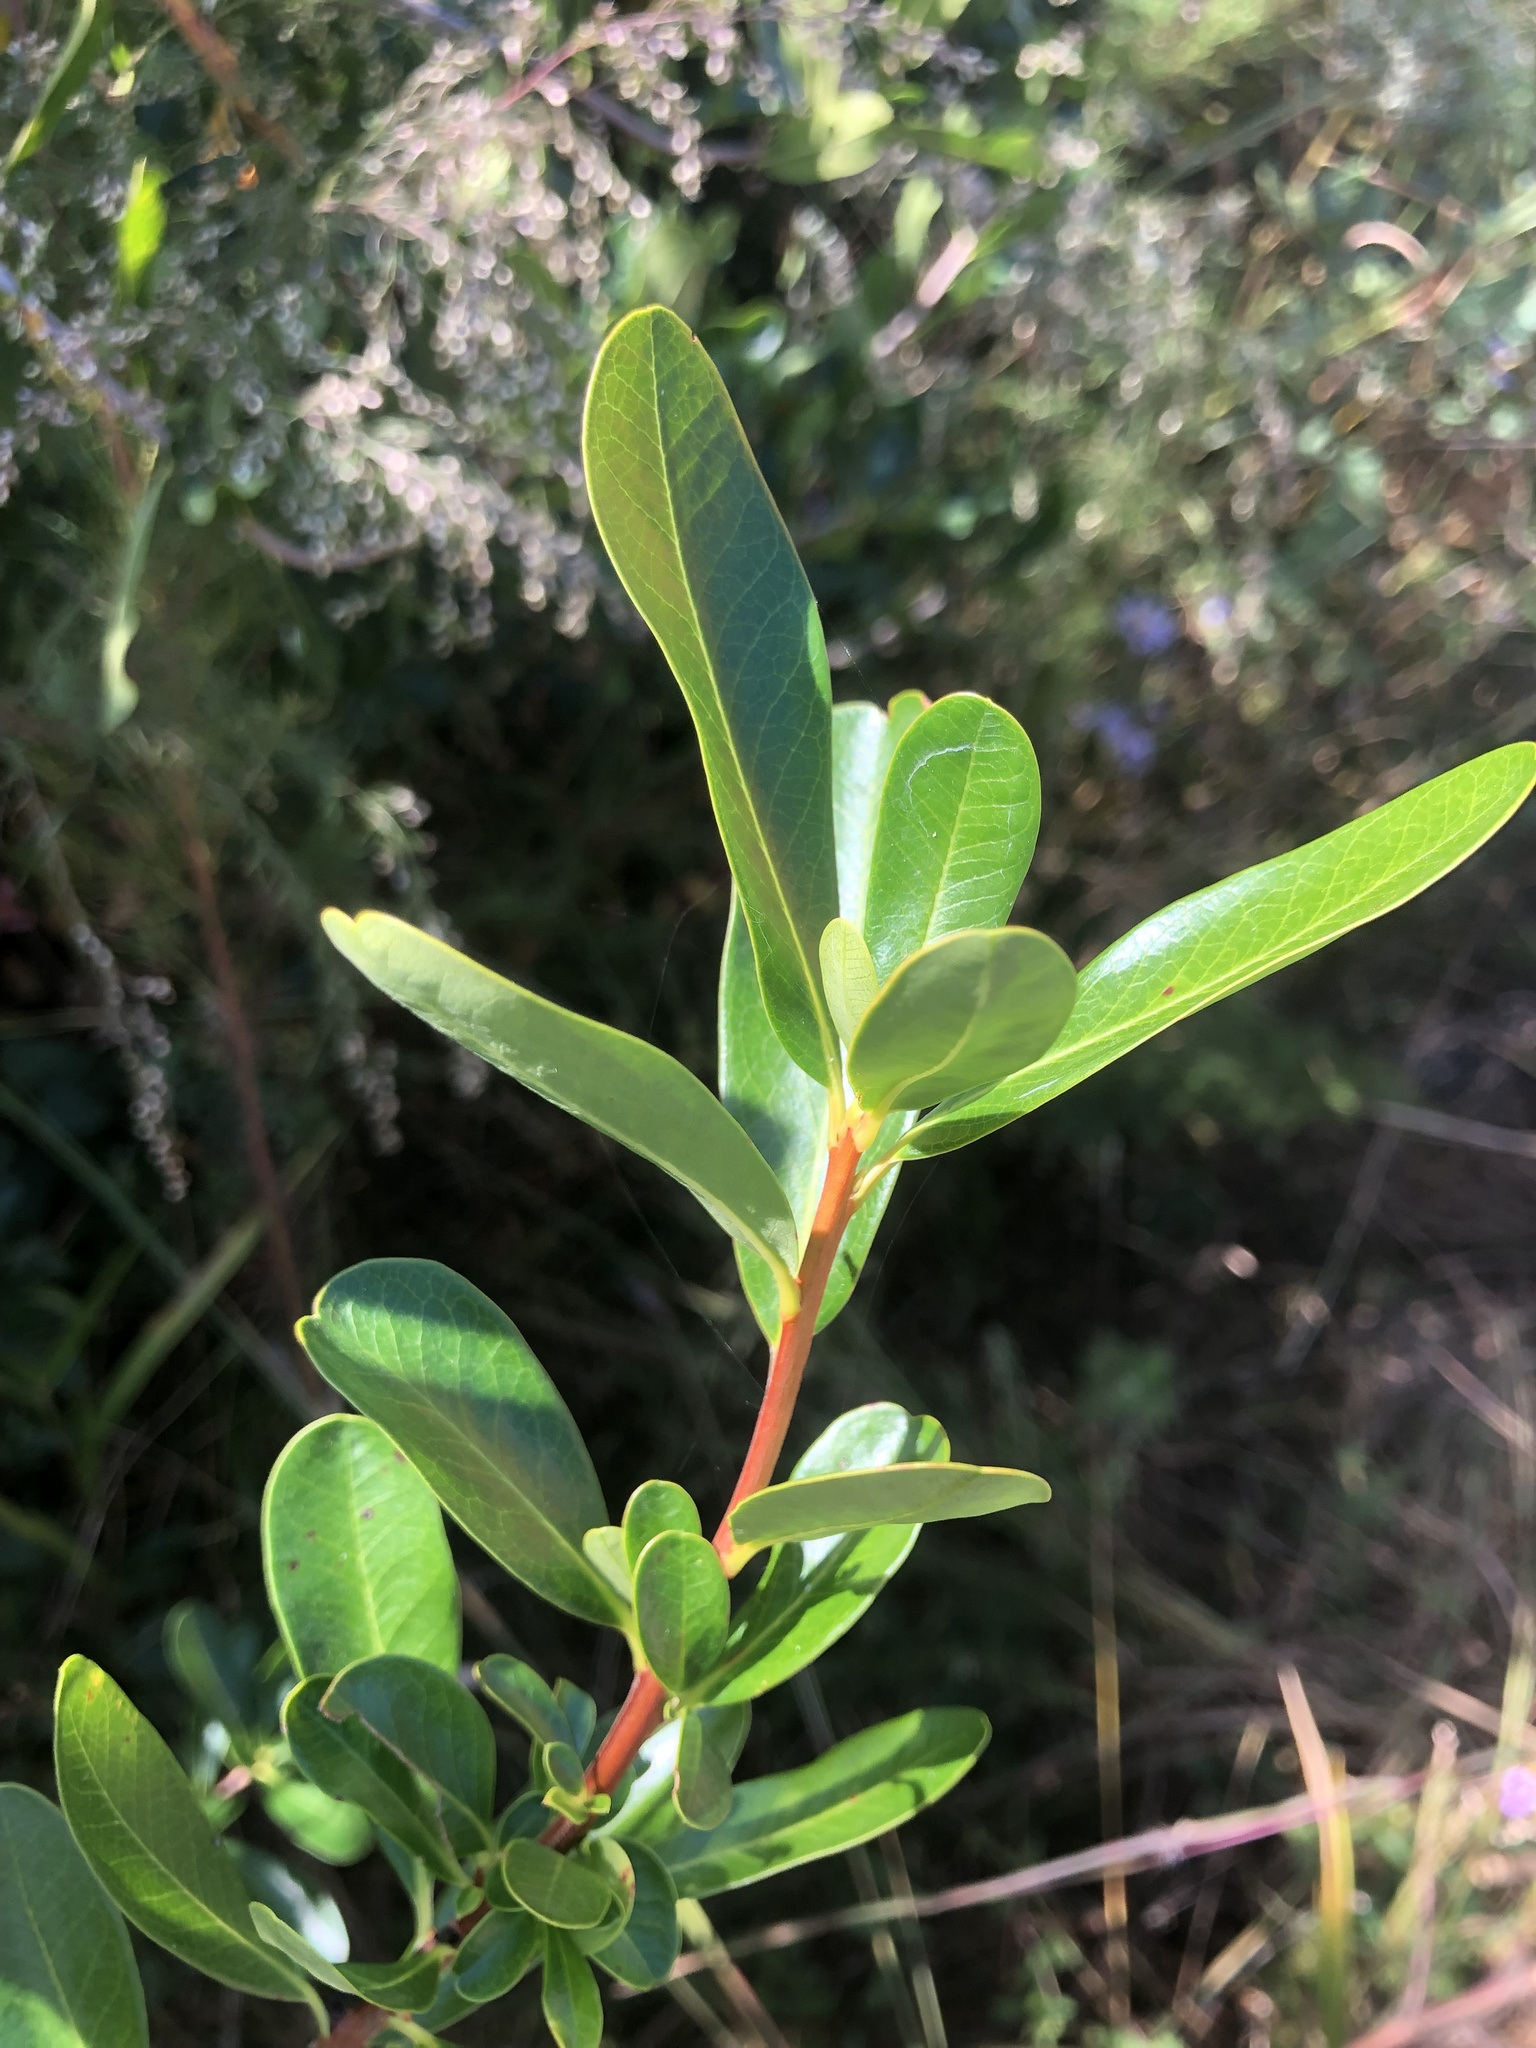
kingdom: Plantae
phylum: Tracheophyta
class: Magnoliopsida
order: Ericales
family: Cyrillaceae
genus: Cyrilla
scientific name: Cyrilla racemiflora
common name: Black titi
